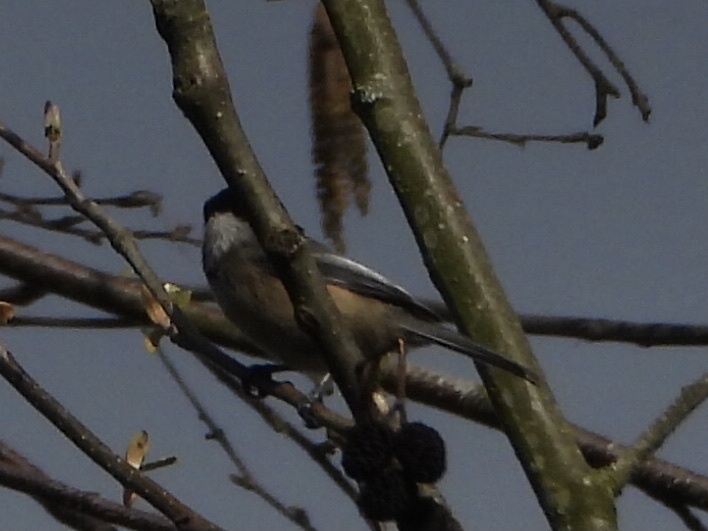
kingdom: Animalia
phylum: Chordata
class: Aves
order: Passeriformes
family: Paridae
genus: Poecile
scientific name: Poecile atricapillus
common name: Black-capped chickadee
